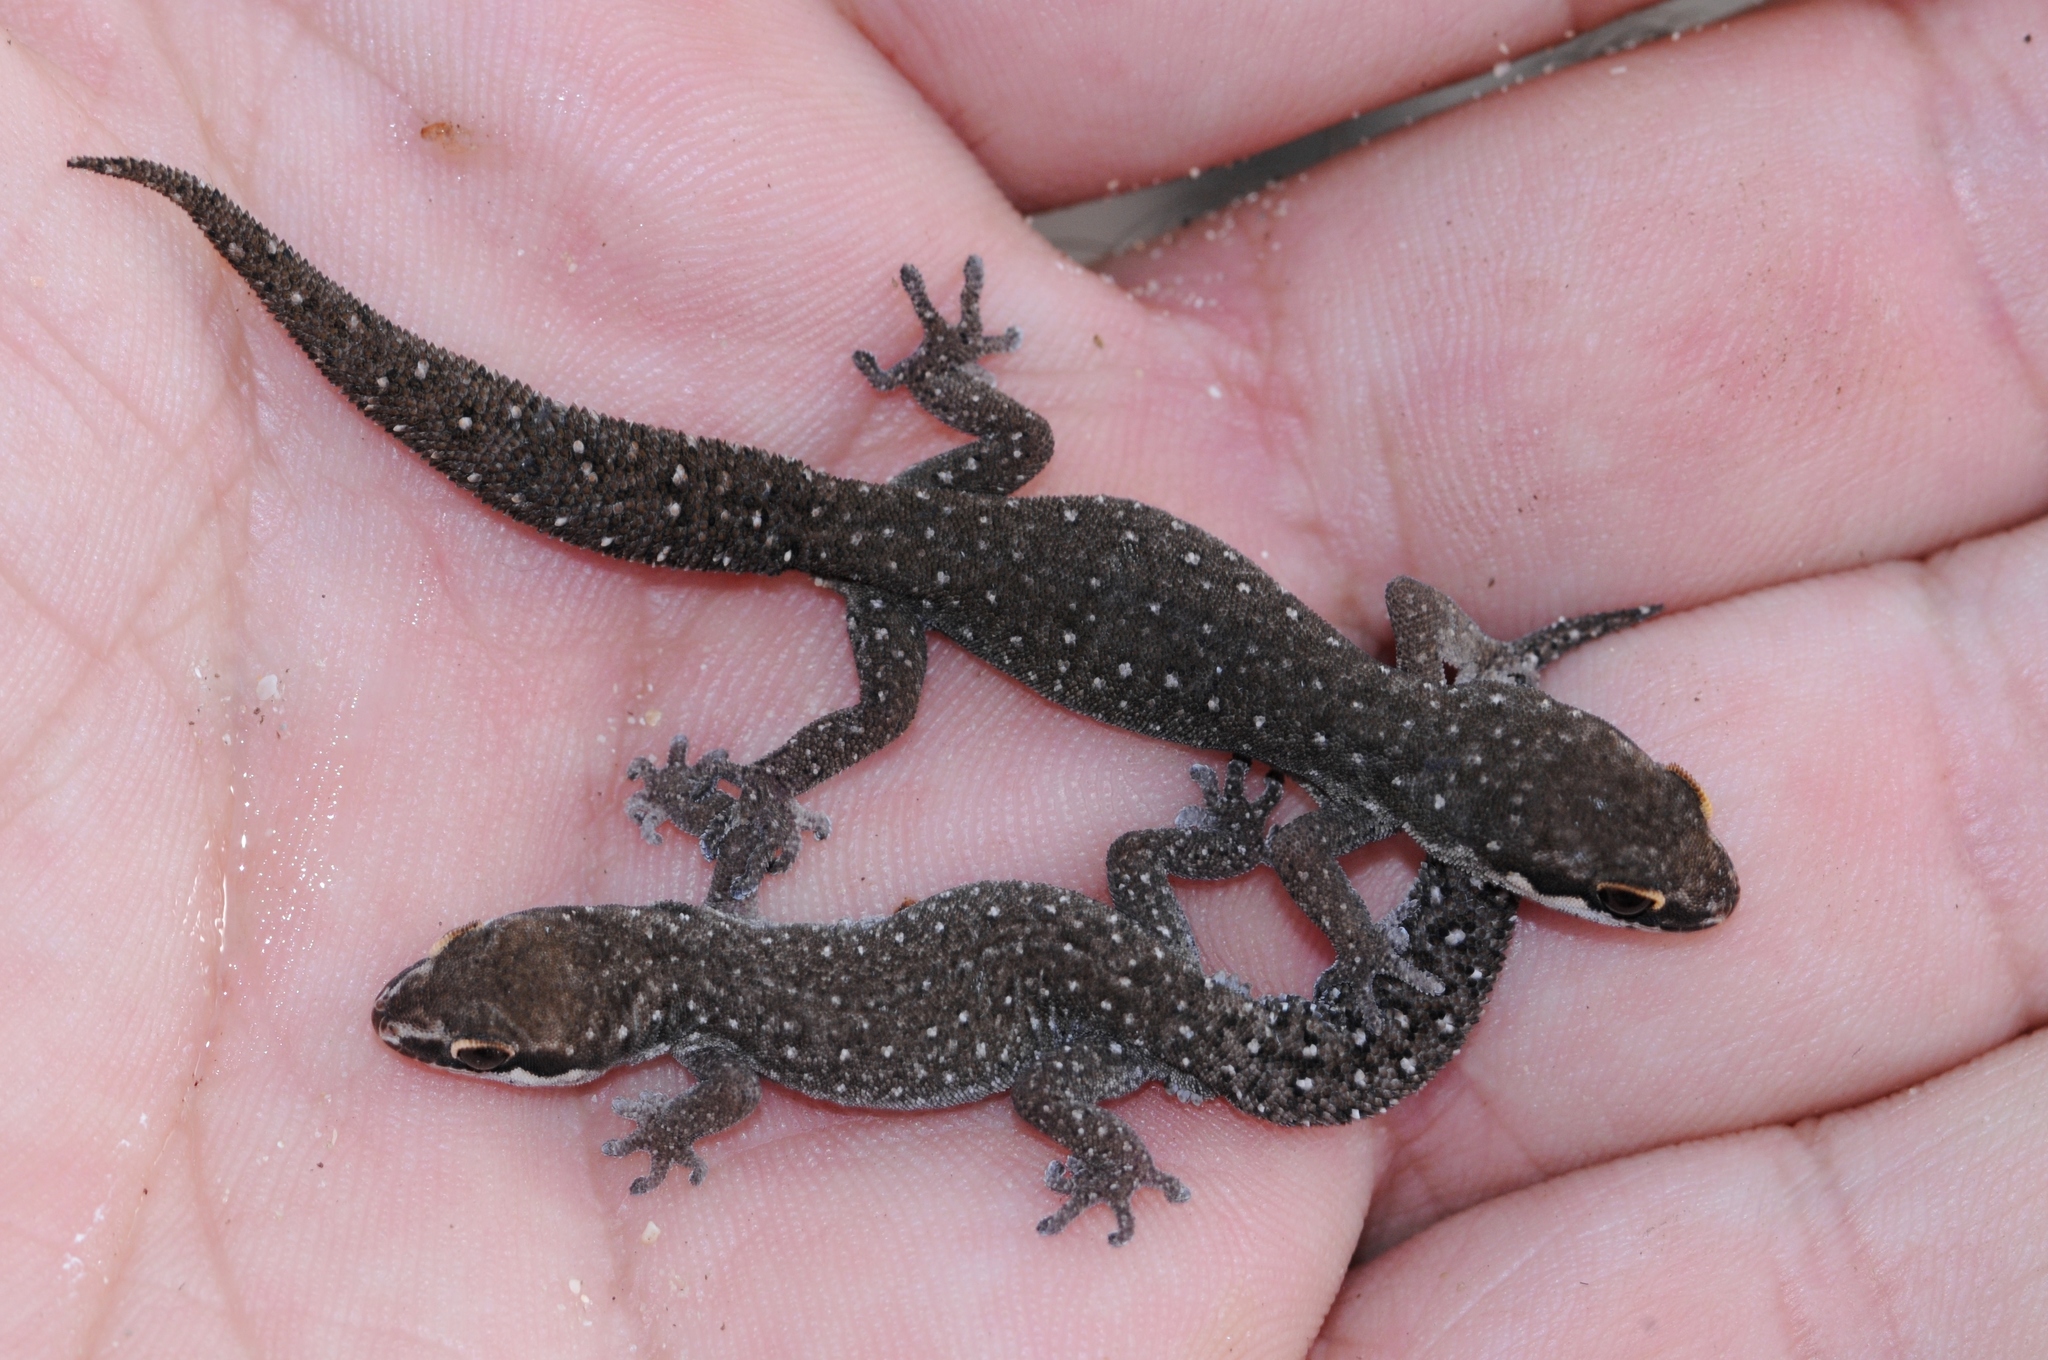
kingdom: Animalia
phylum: Chordata
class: Squamata
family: Gekkonidae
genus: Pachydactylus
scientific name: Pachydactylus geitje
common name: Ocellated thick-toed gecko
